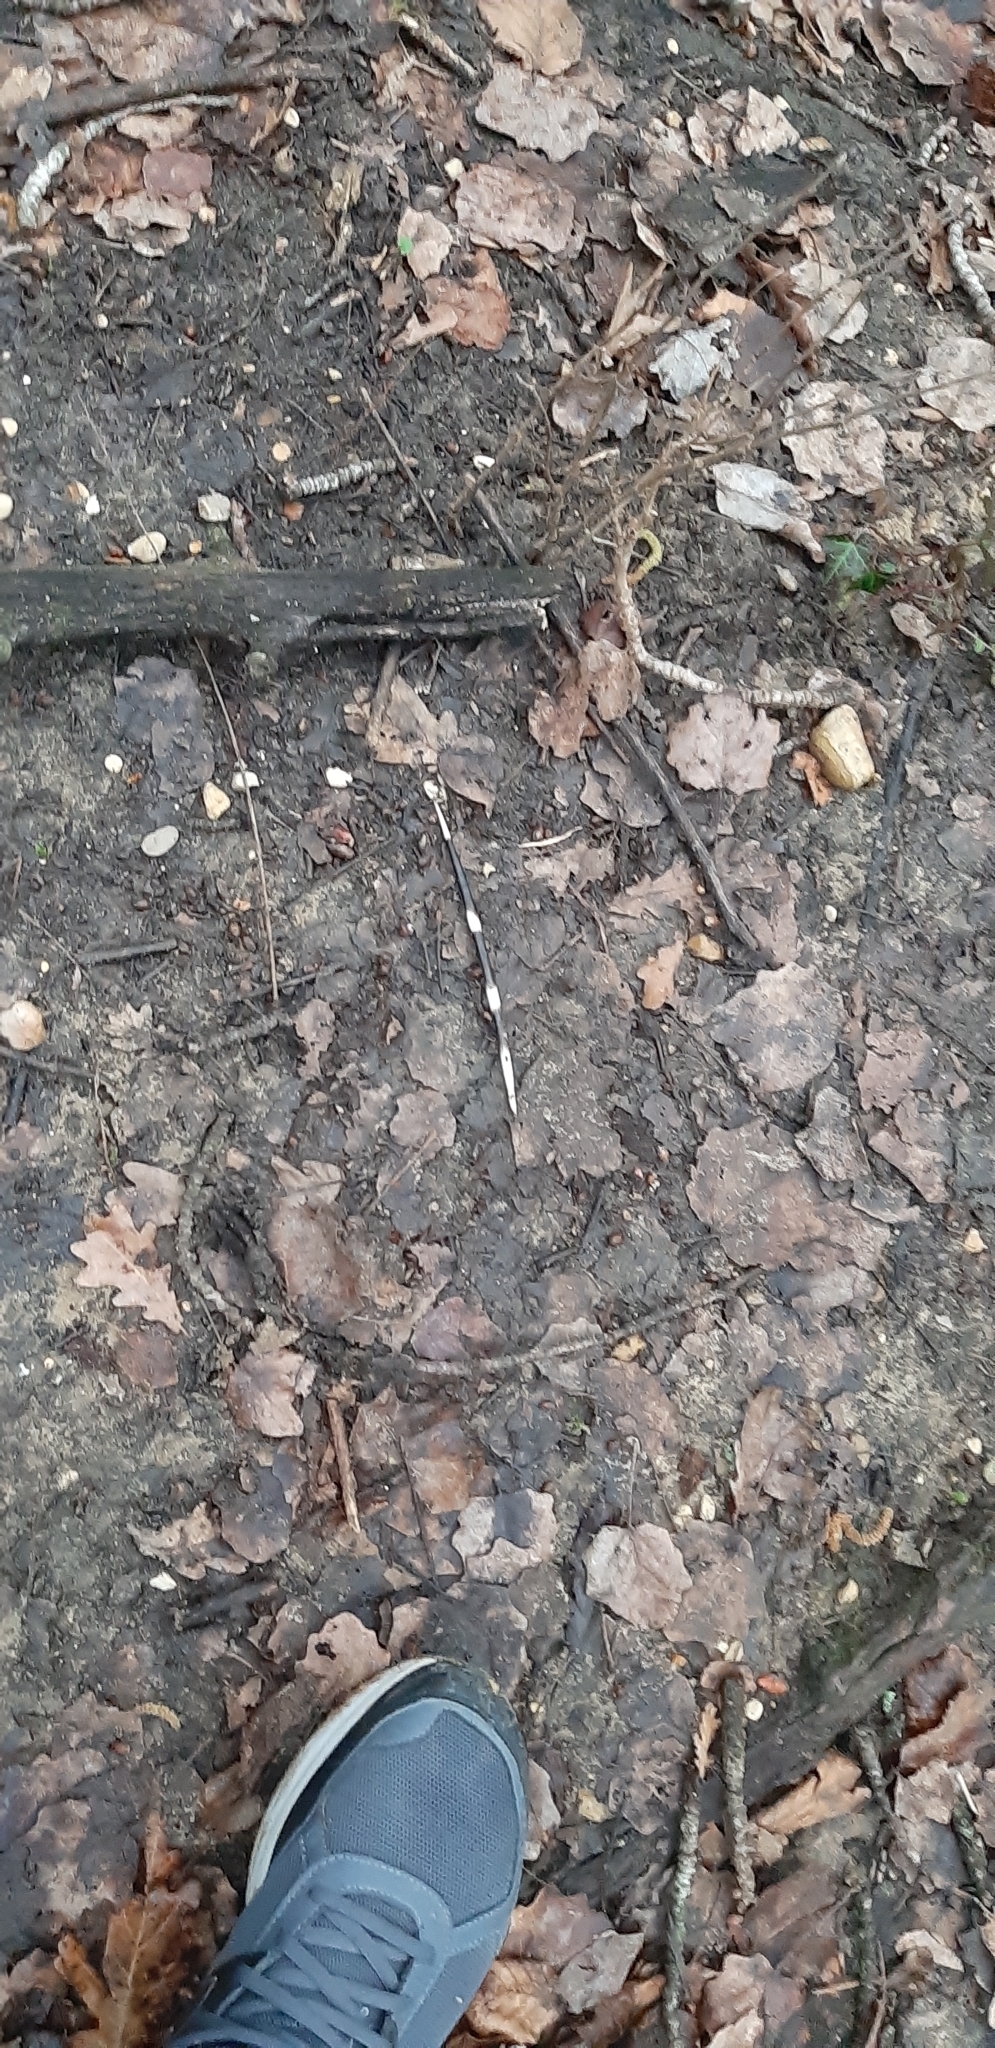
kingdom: Animalia
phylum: Chordata
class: Mammalia
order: Rodentia
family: Hystricidae
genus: Hystrix
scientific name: Hystrix cristata
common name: Crested porcupine
